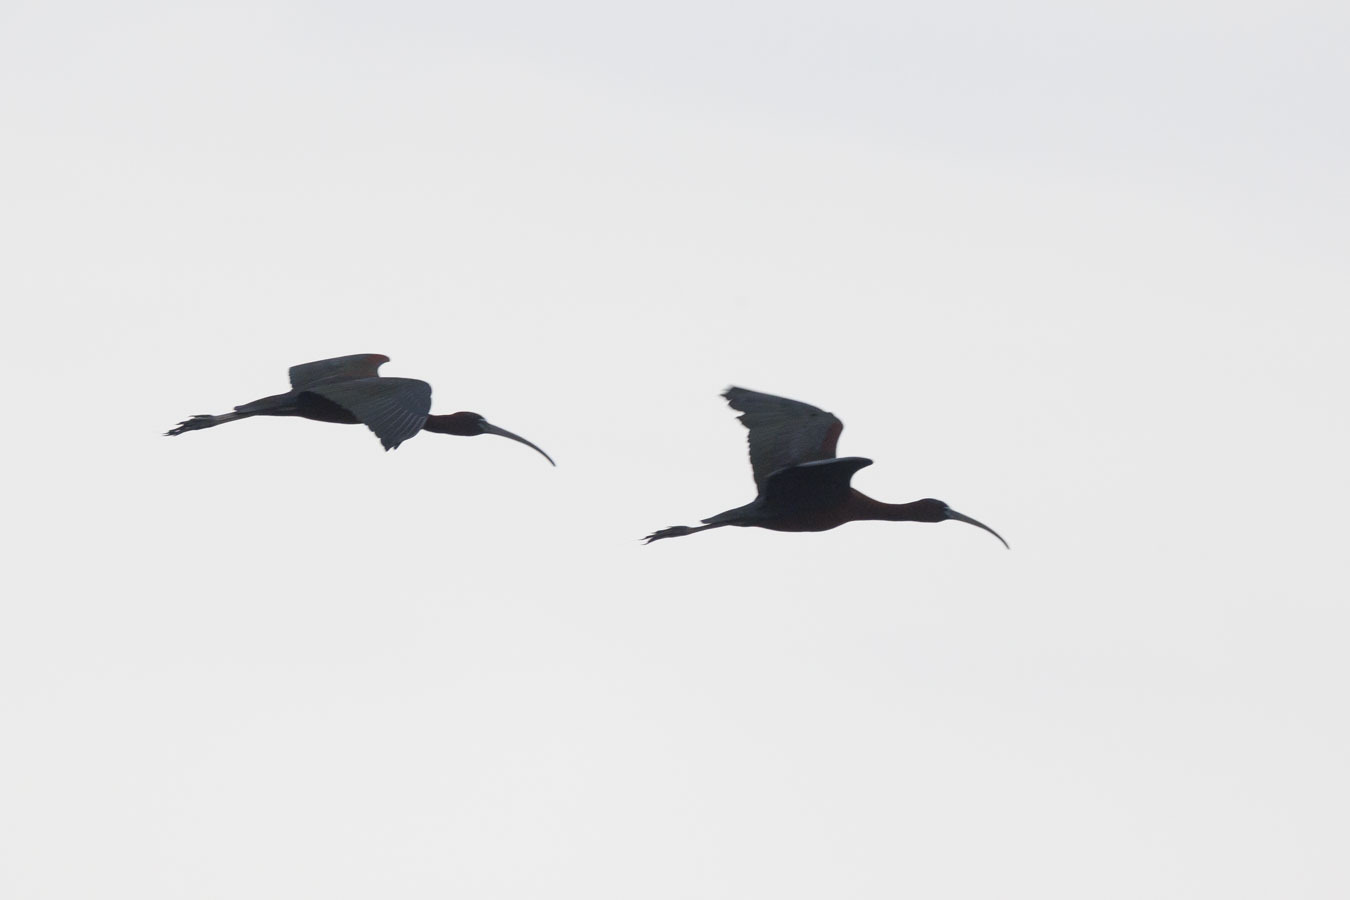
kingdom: Animalia
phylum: Chordata
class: Aves
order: Pelecaniformes
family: Threskiornithidae
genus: Plegadis
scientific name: Plegadis falcinellus
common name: Glossy ibis
